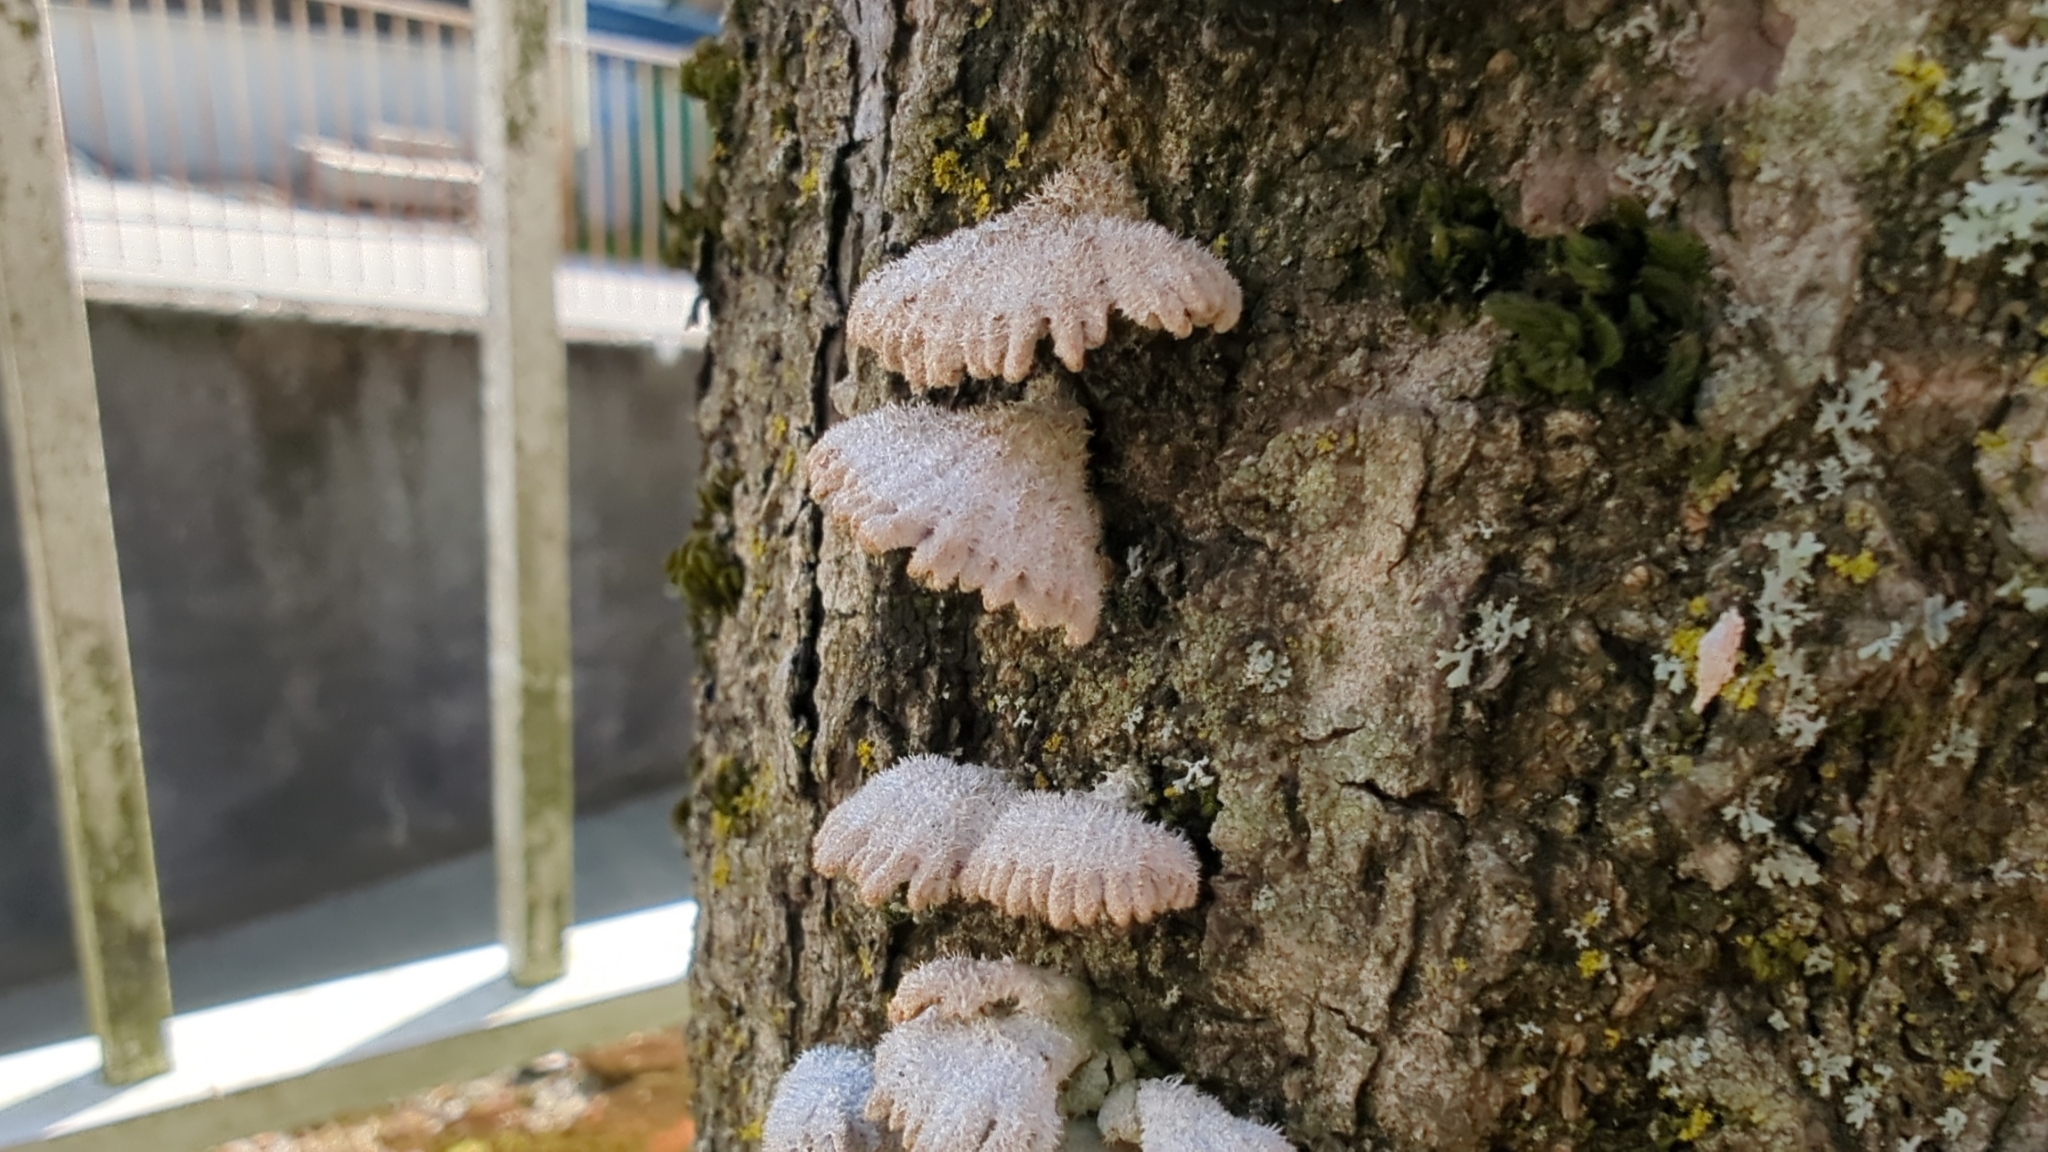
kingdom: Fungi
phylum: Basidiomycota
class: Agaricomycetes
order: Agaricales
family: Schizophyllaceae
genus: Schizophyllum
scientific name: Schizophyllum commune
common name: Common porecrust
